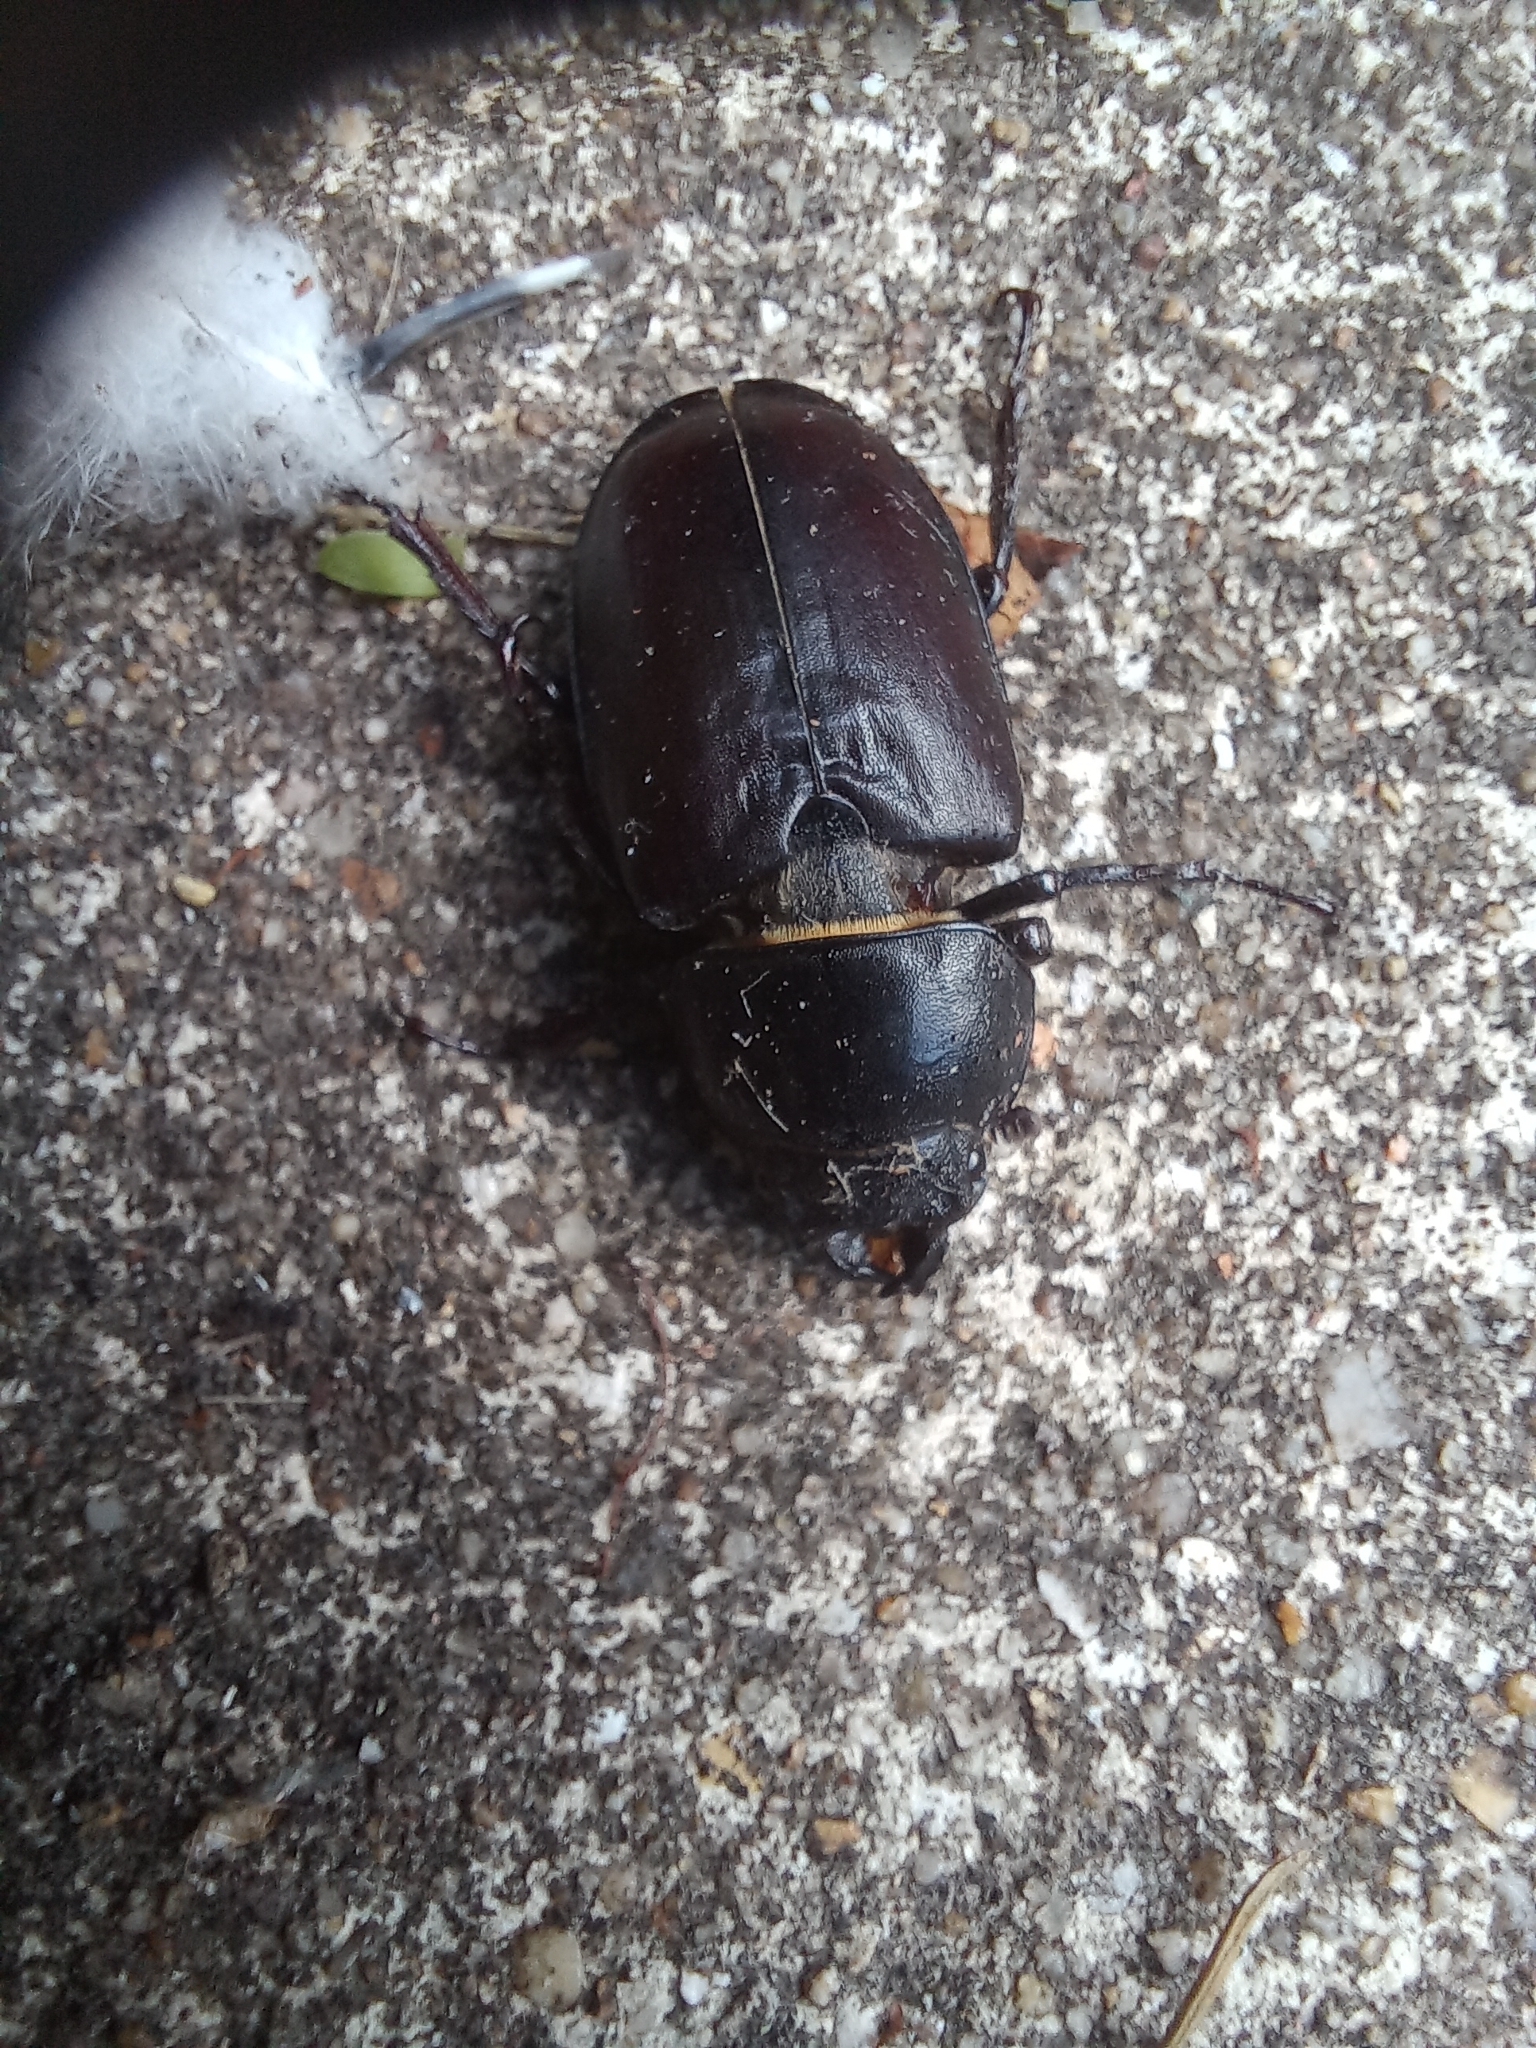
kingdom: Animalia
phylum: Arthropoda
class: Insecta
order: Coleoptera
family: Lucanidae
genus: Lucanus
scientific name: Lucanus cervus
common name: Stag beetle
